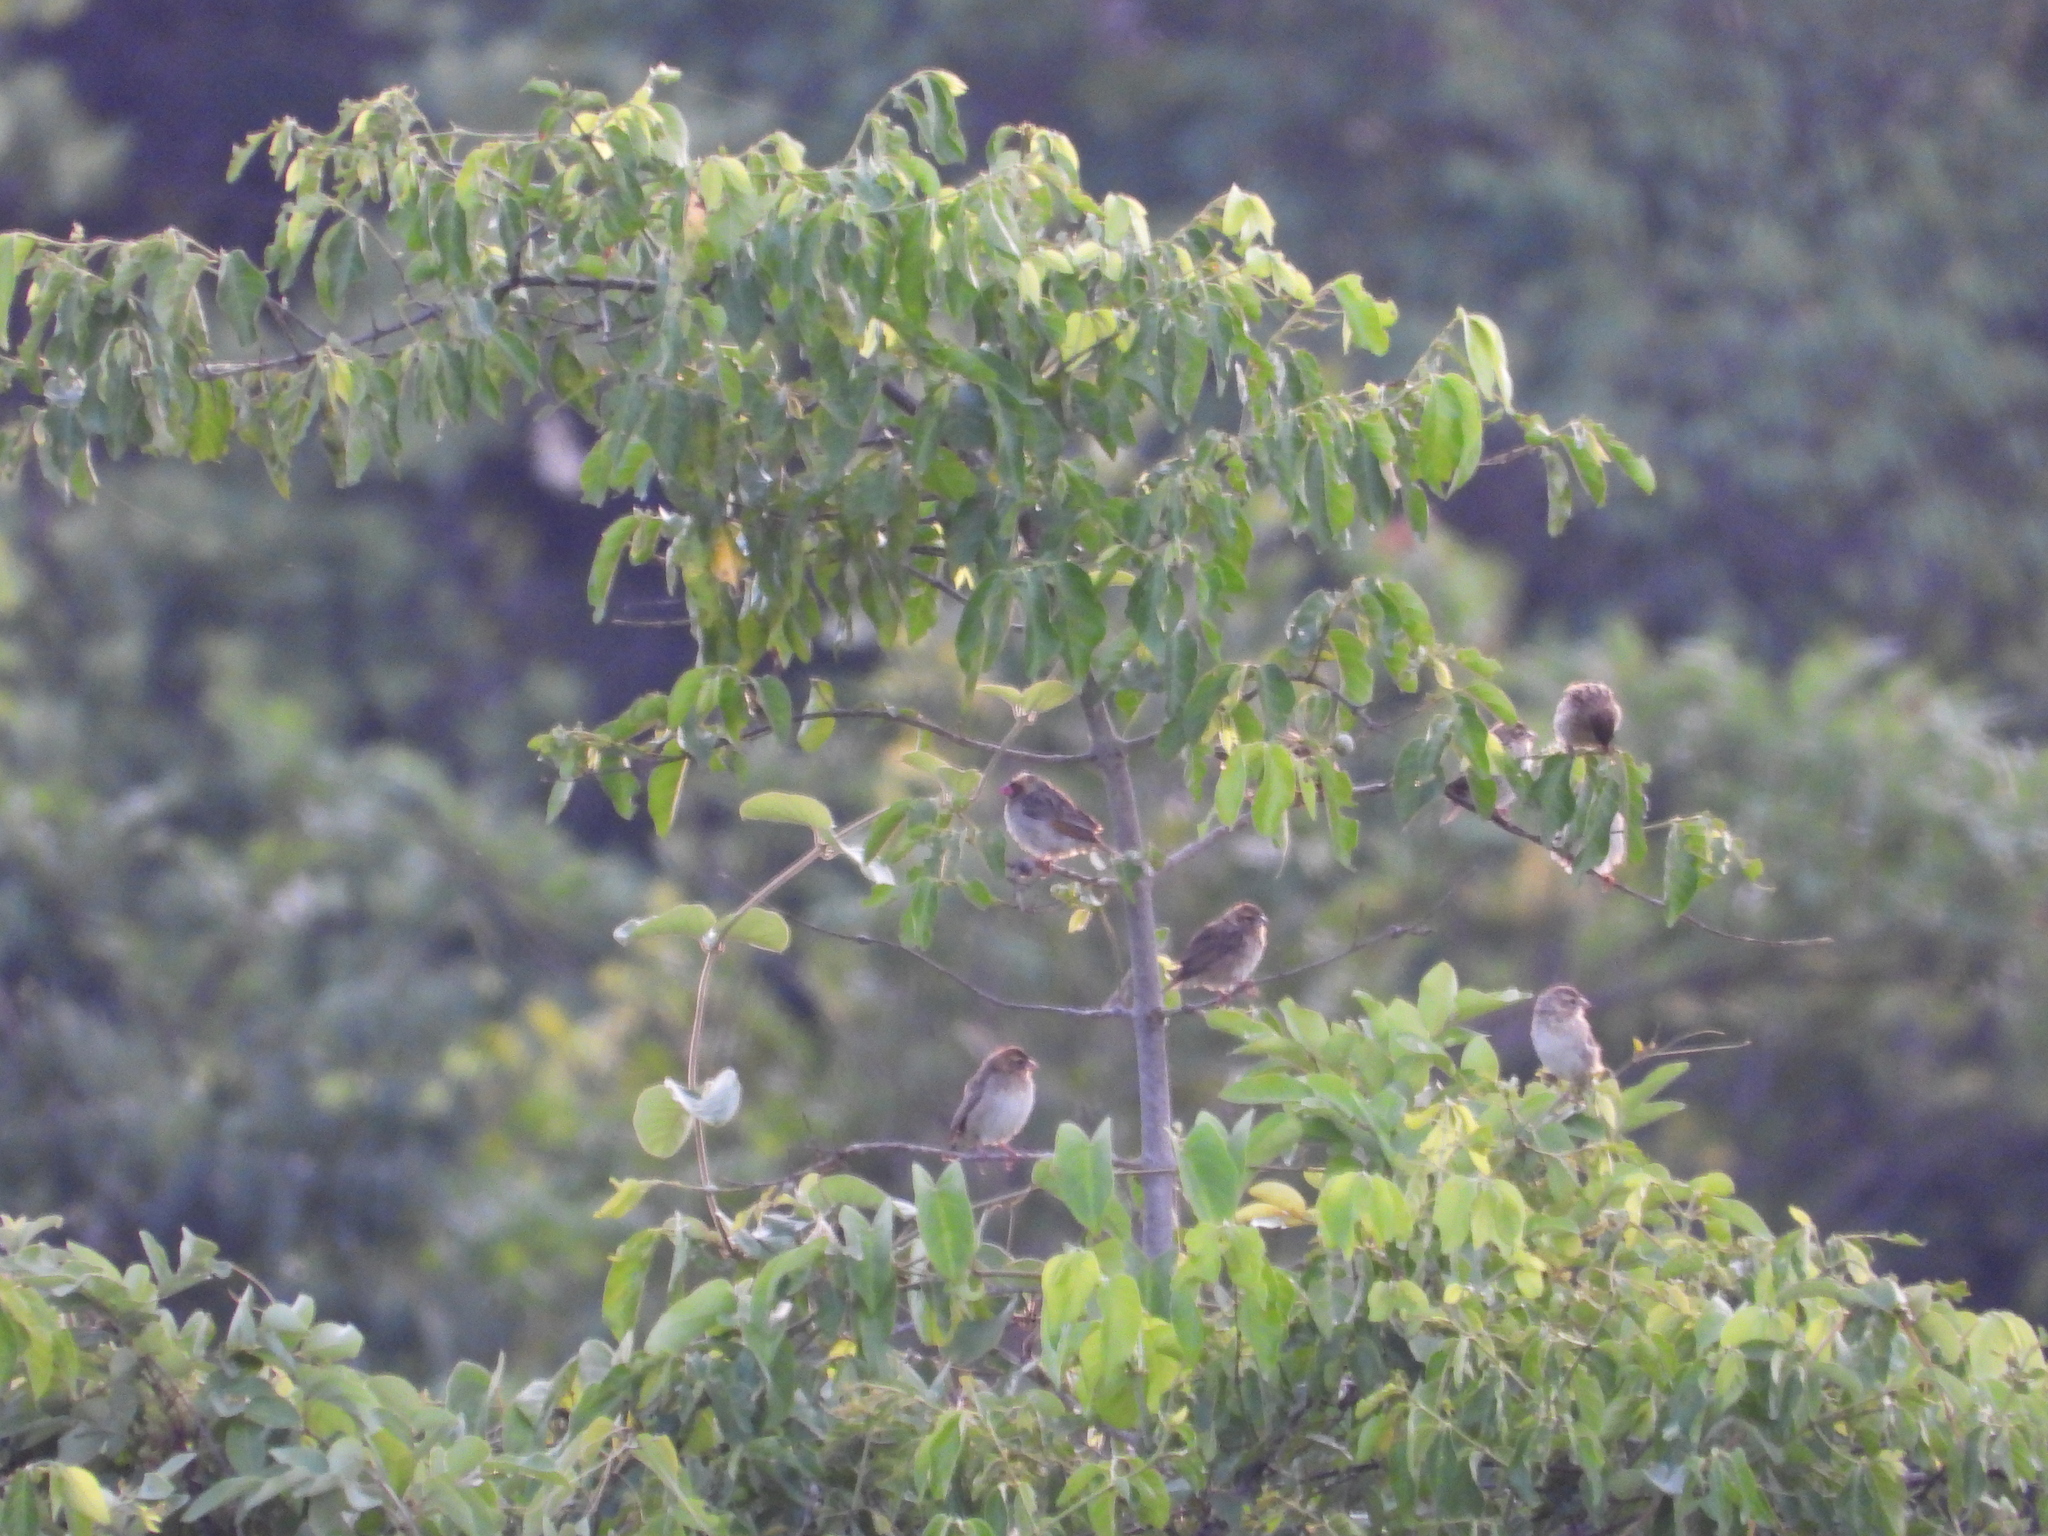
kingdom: Animalia
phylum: Chordata
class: Aves
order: Passeriformes
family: Ploceidae
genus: Quelea
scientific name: Quelea quelea
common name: Red-billed quelea
